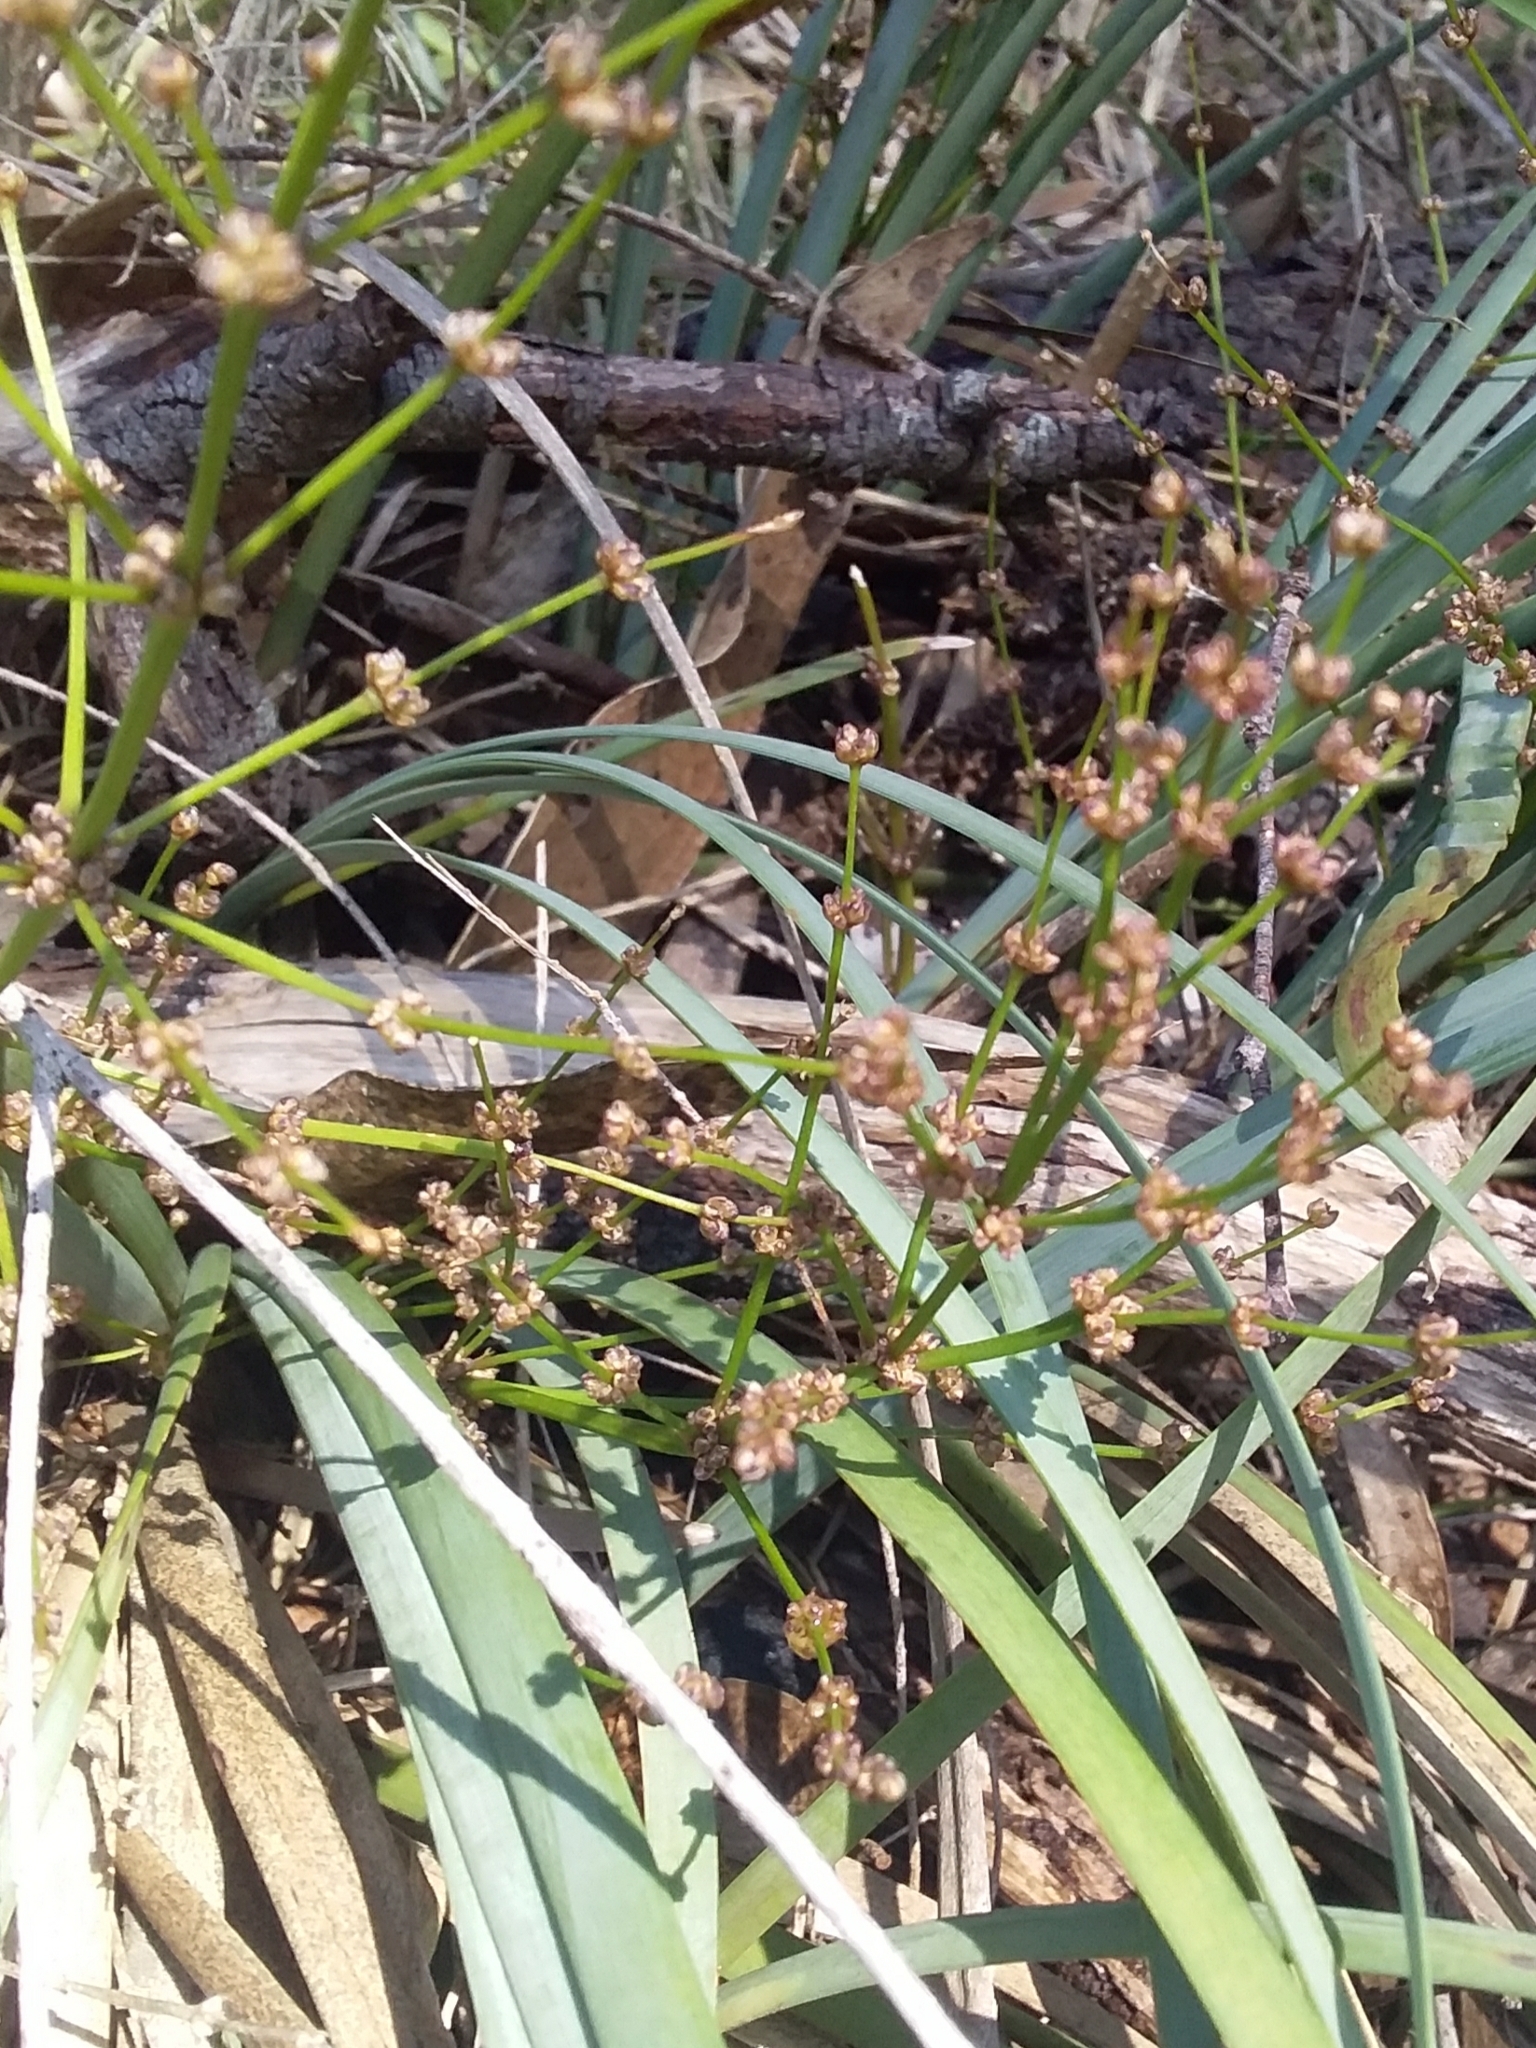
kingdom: Plantae
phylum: Tracheophyta
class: Liliopsida
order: Asparagales
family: Asparagaceae
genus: Lomandra
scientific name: Lomandra multiflora
